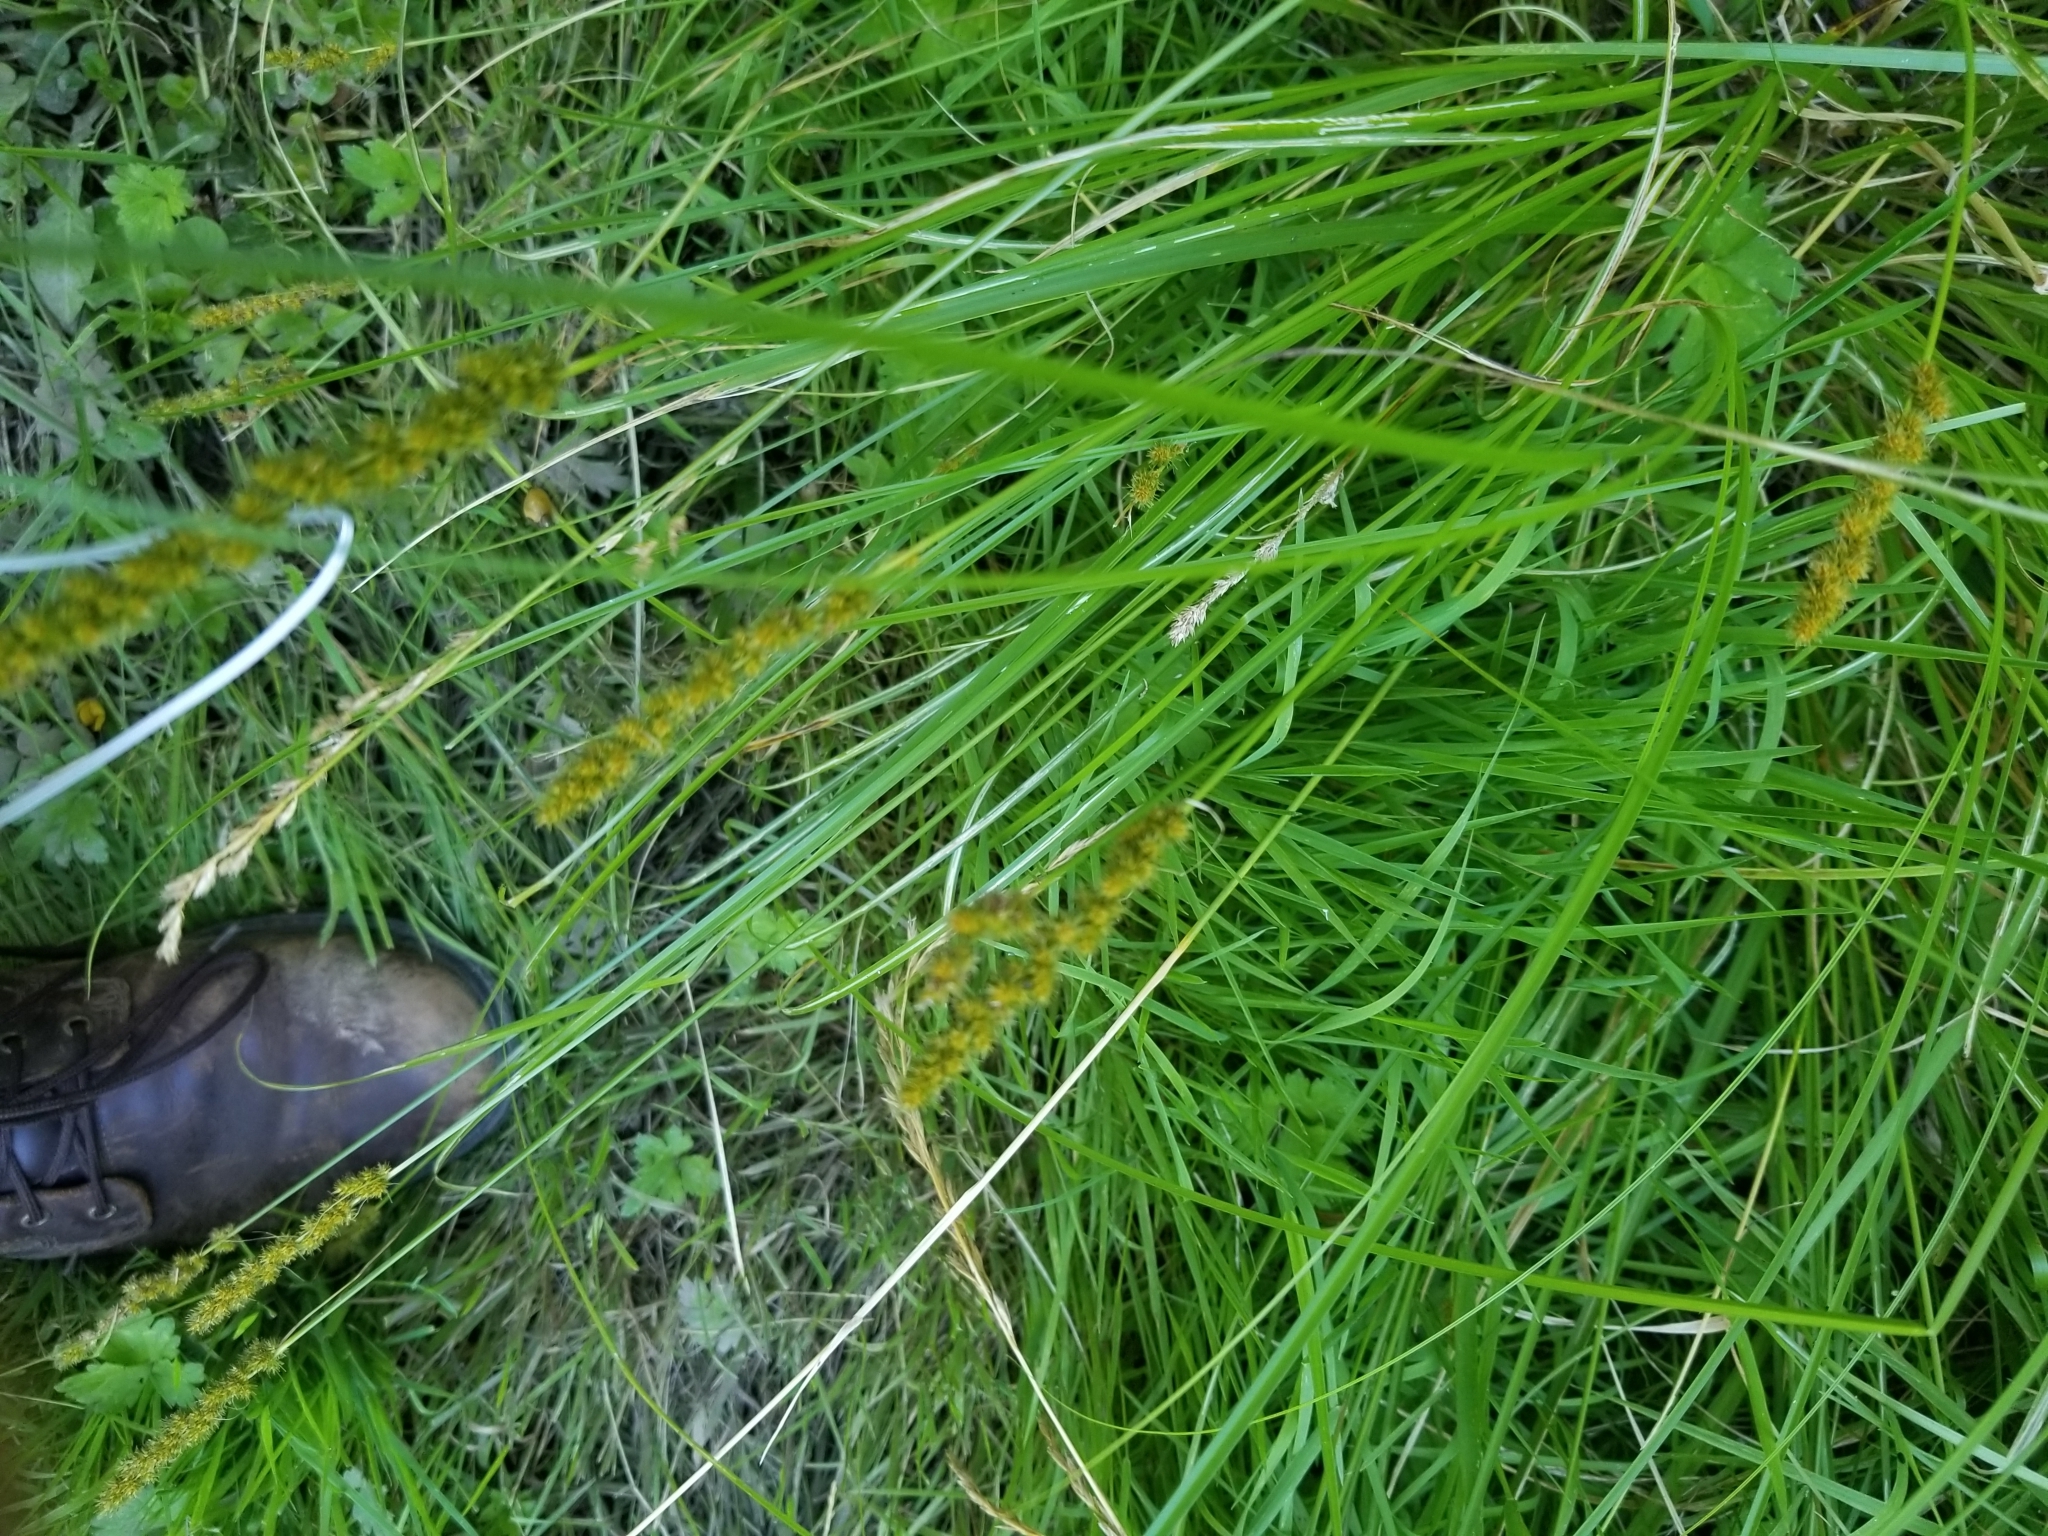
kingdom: Plantae
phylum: Tracheophyta
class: Liliopsida
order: Poales
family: Cyperaceae
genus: Carex
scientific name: Carex vulpinoidea
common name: American fox-sedge
